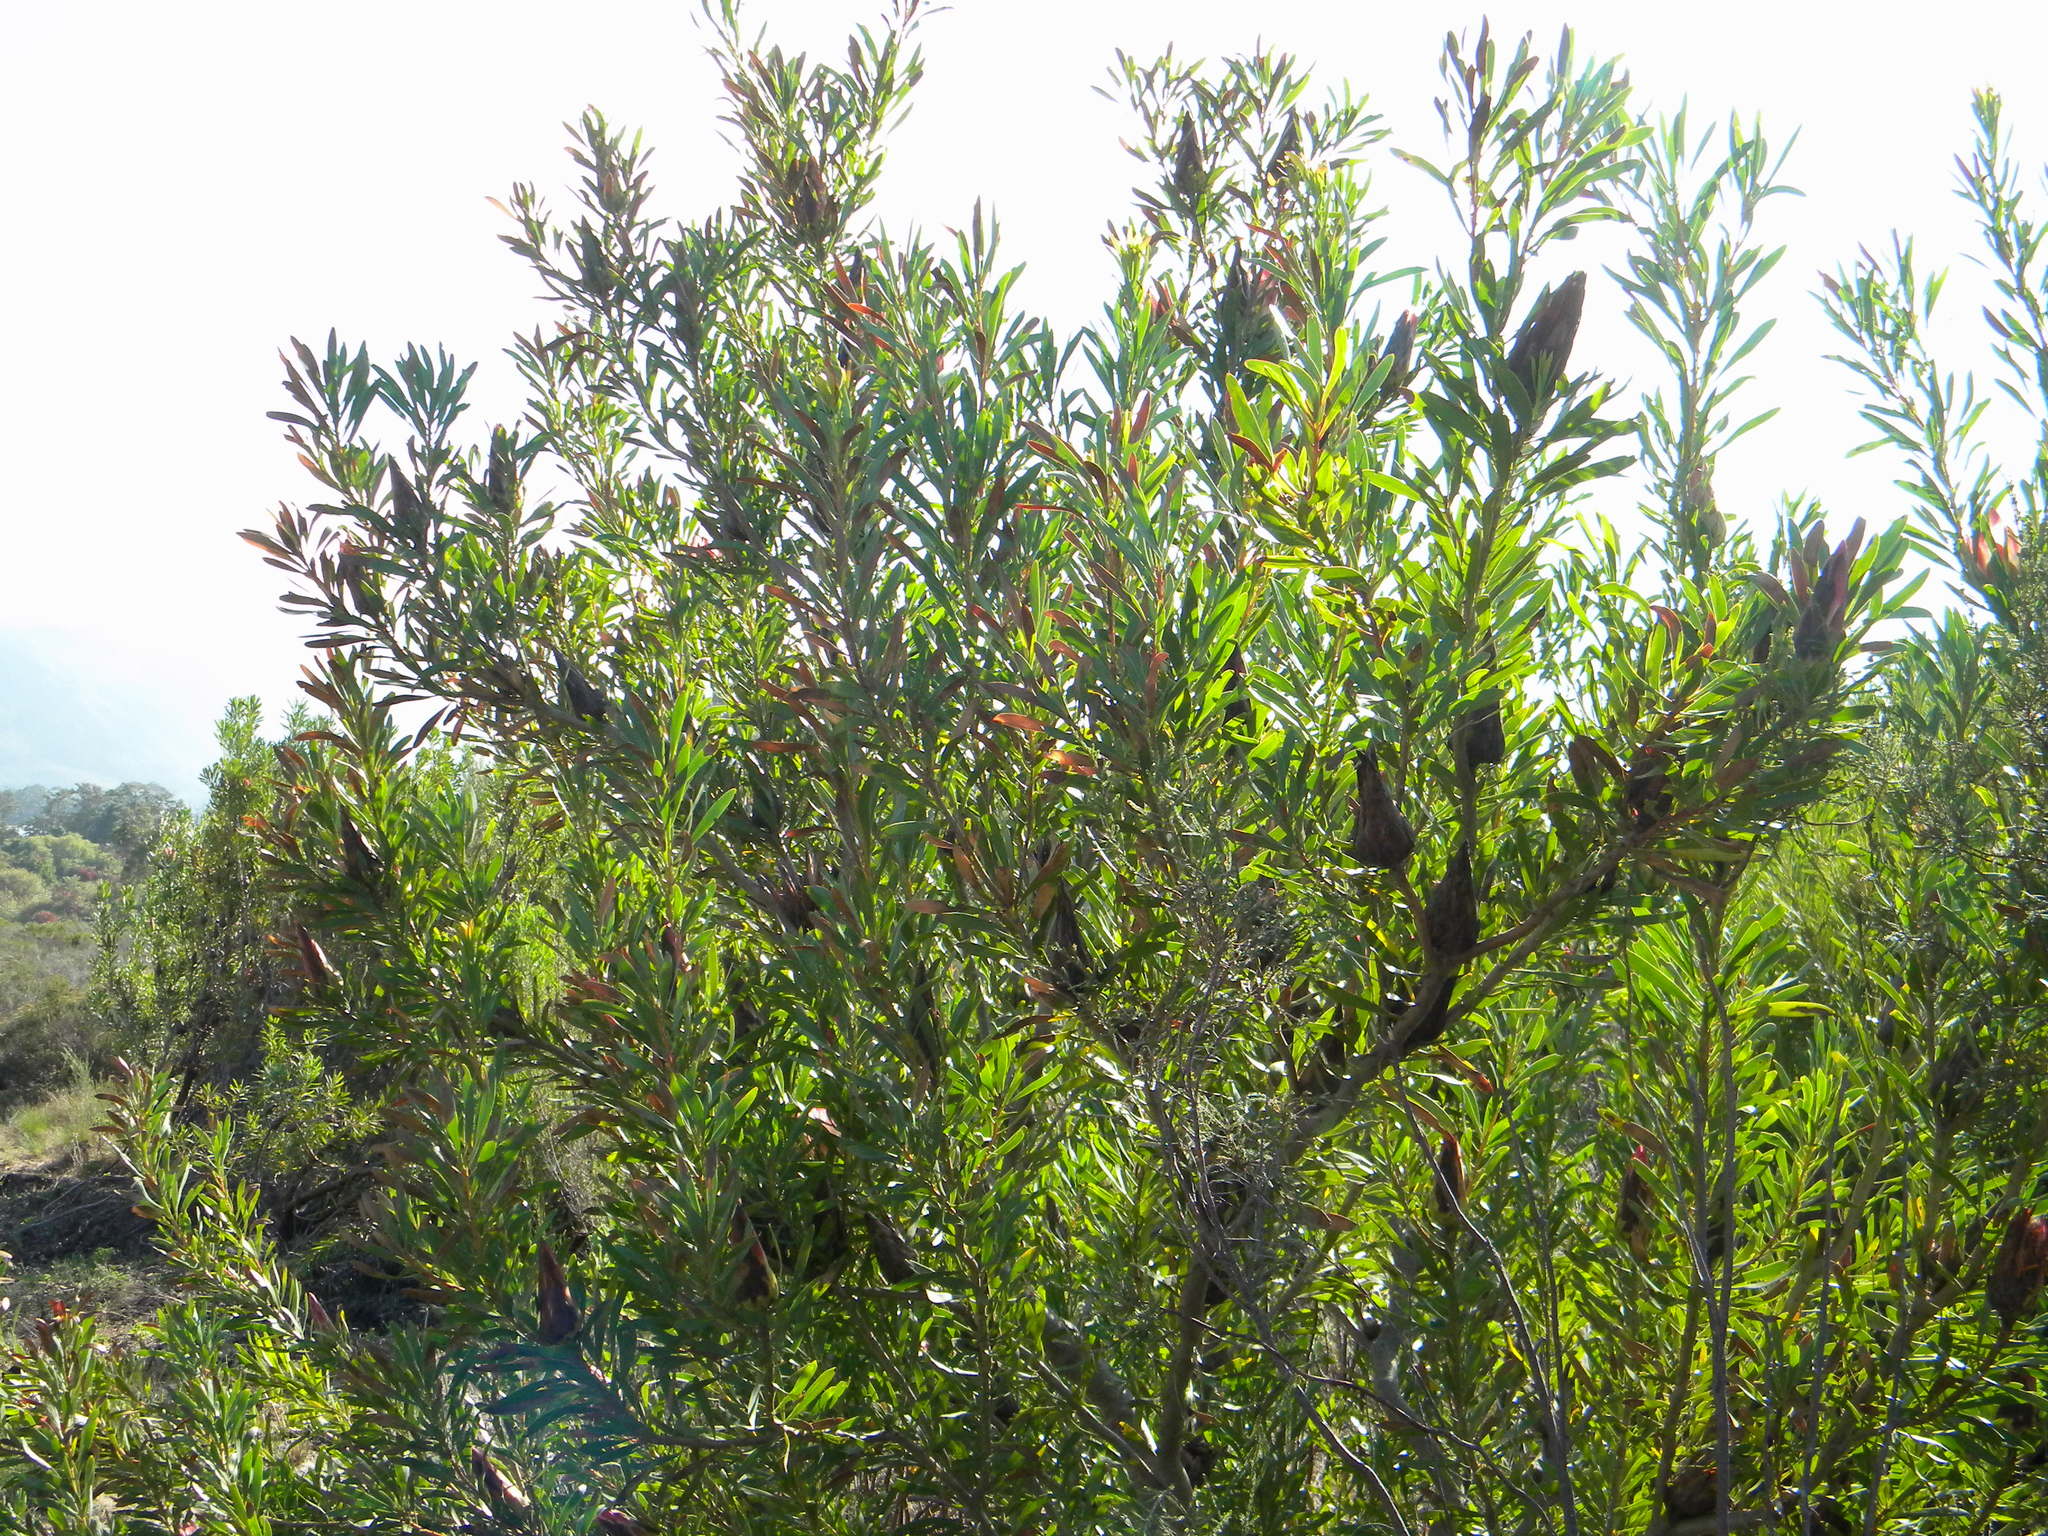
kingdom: Plantae
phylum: Tracheophyta
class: Magnoliopsida
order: Proteales
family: Proteaceae
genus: Protea
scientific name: Protea repens
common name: Sugarbush
